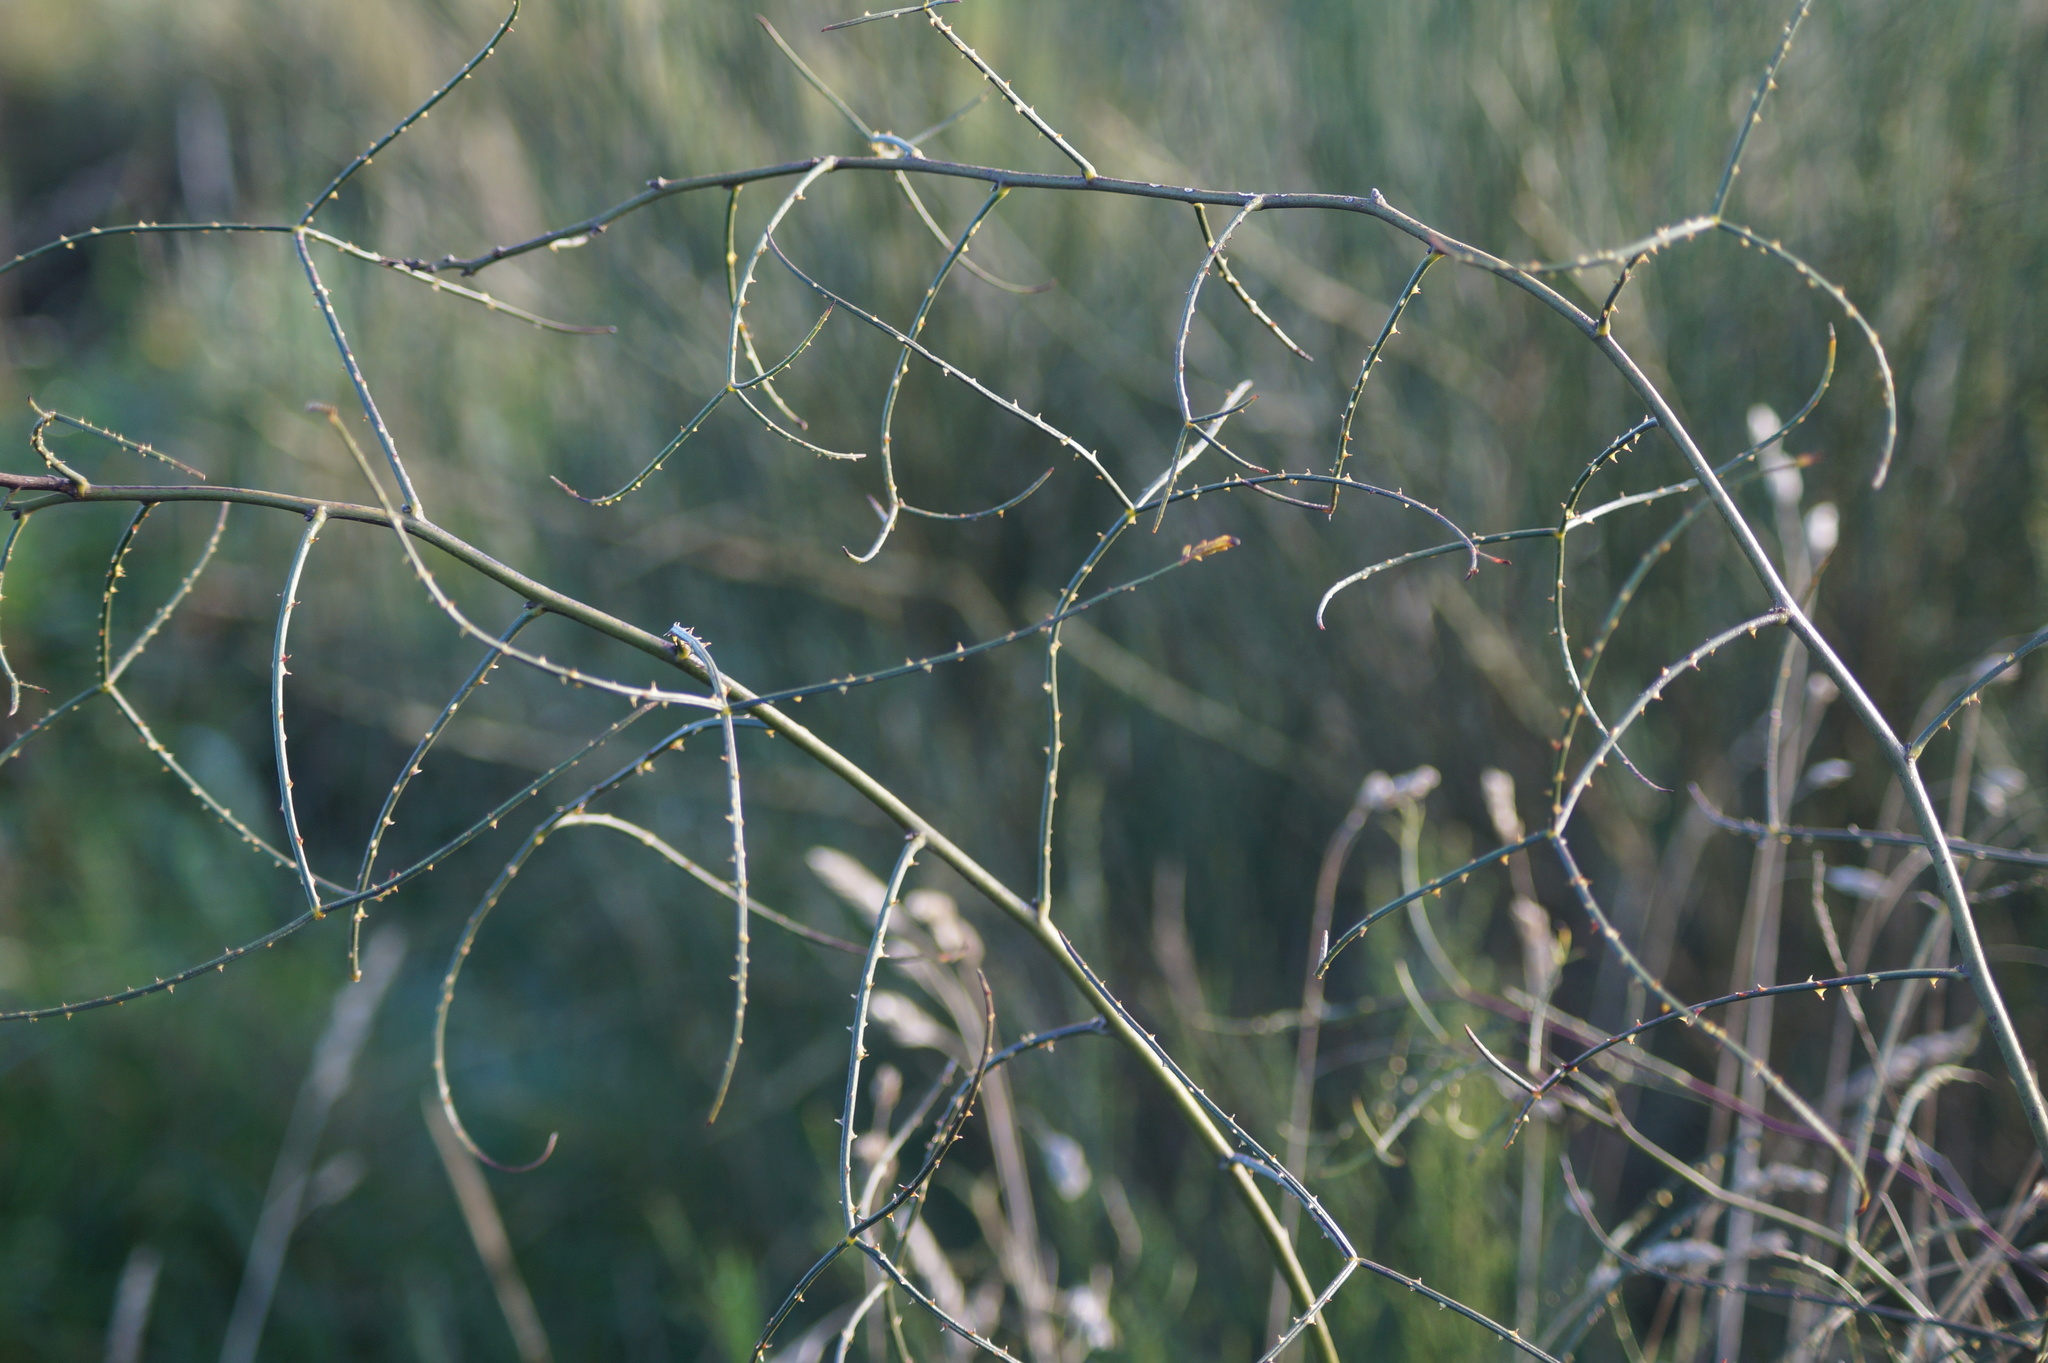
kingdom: Plantae
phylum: Tracheophyta
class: Magnoliopsida
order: Rosales
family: Rosaceae
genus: Rubus
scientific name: Rubus squarrosus
